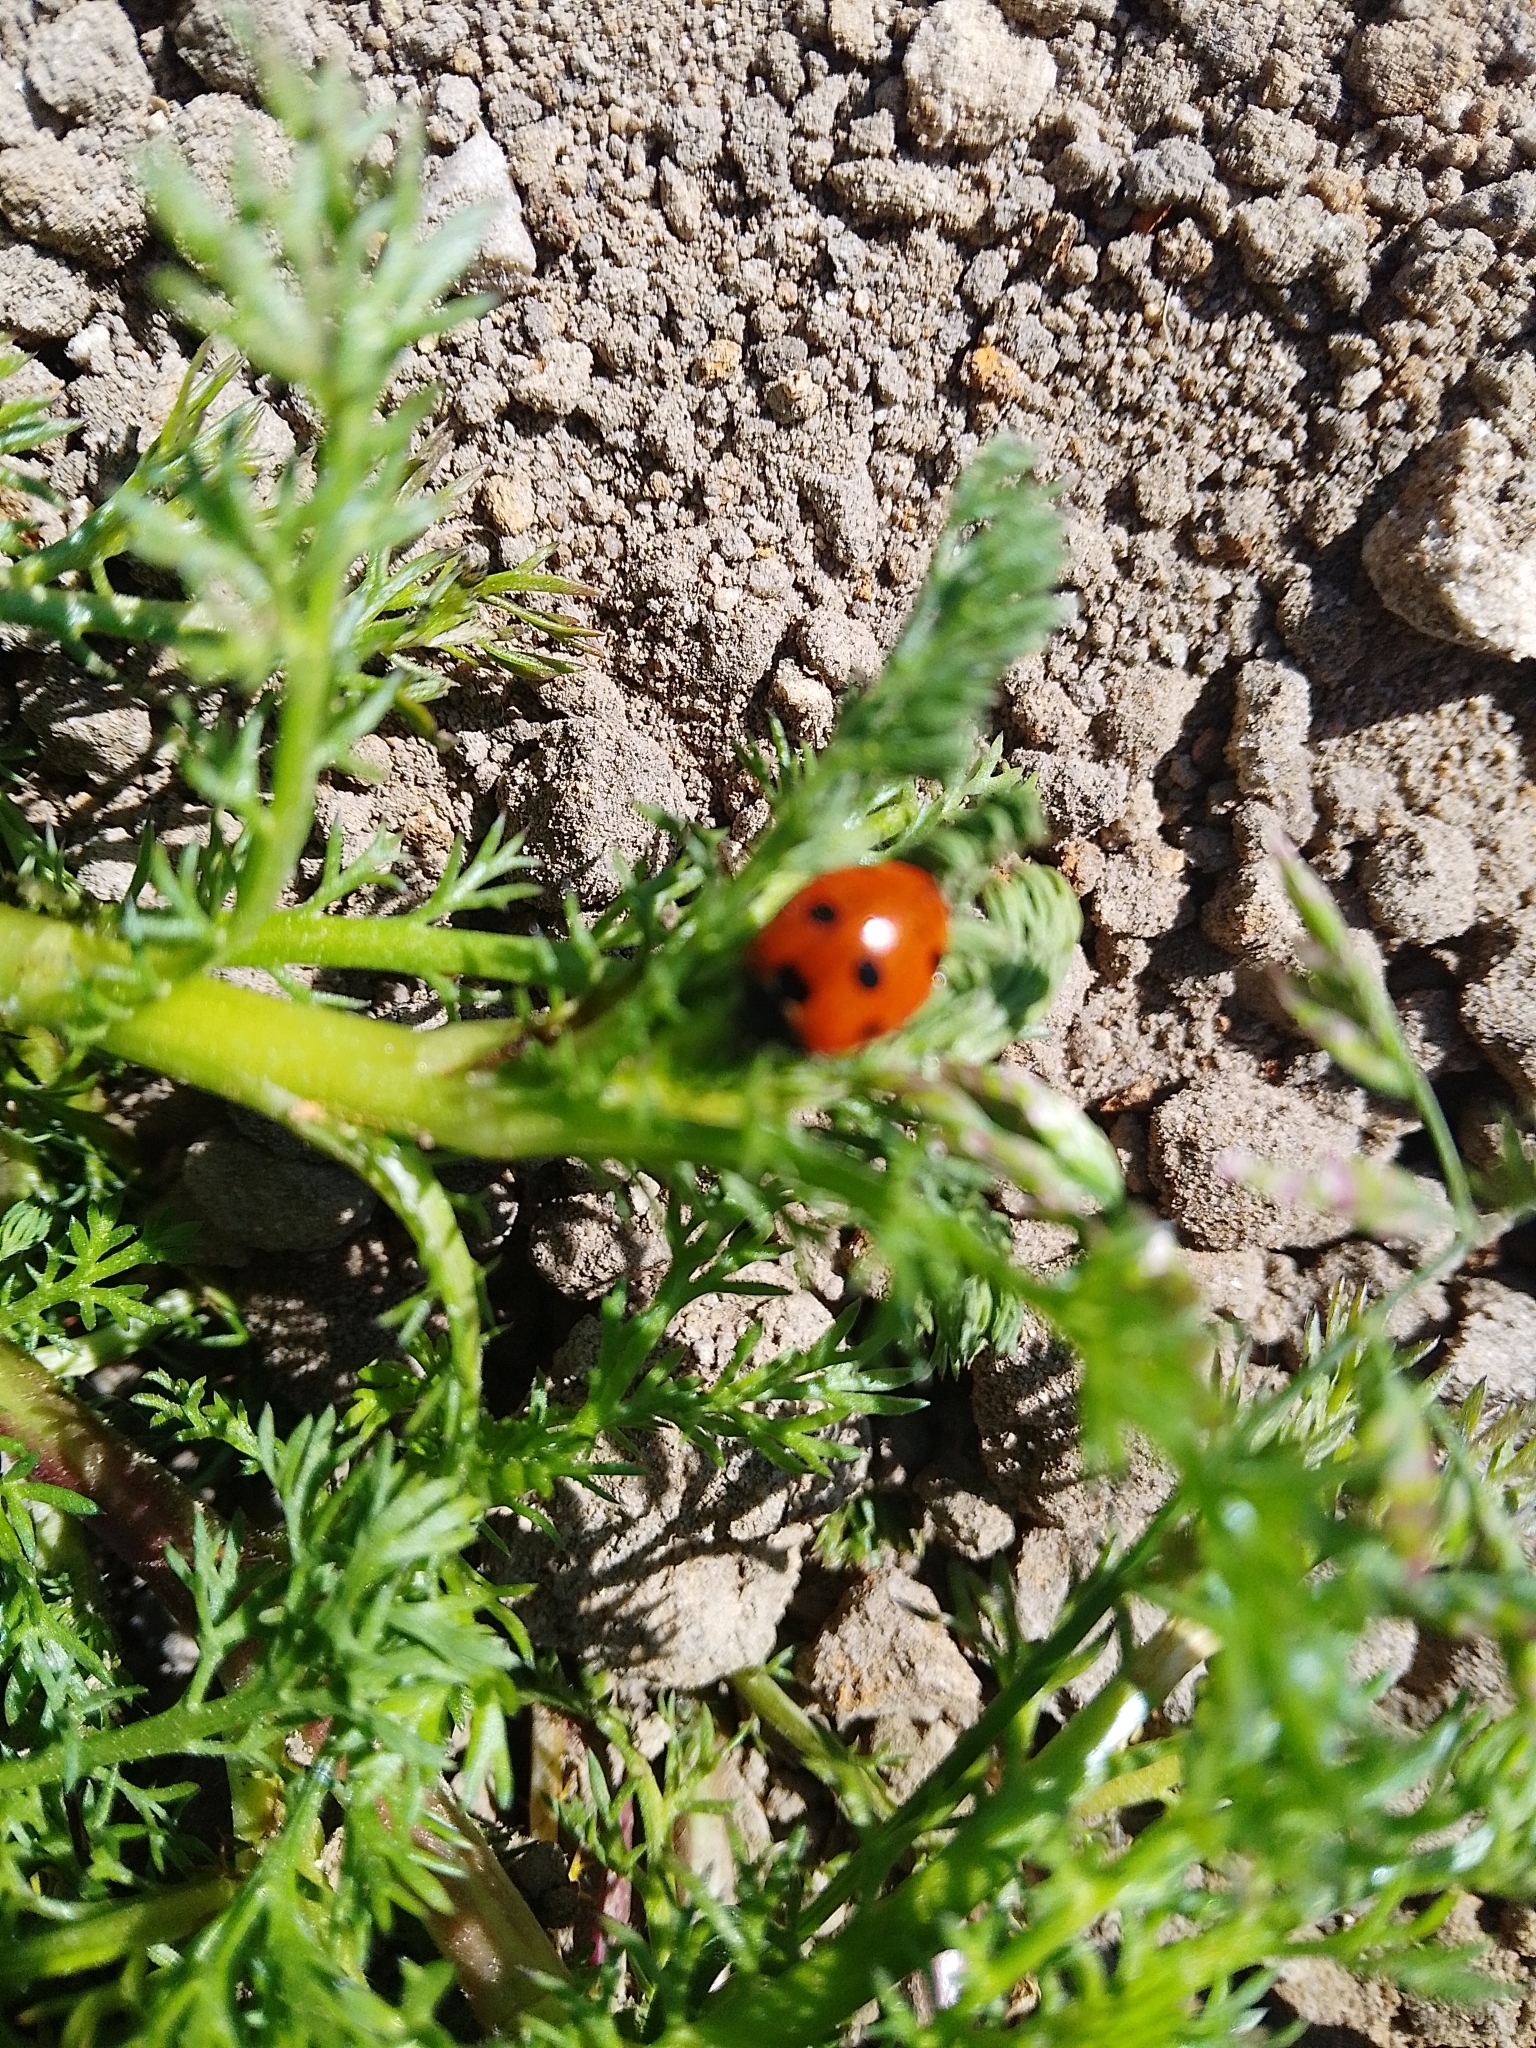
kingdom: Animalia
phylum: Arthropoda
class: Insecta
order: Coleoptera
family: Coccinellidae
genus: Coccinella
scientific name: Coccinella septempunctata
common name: Sevenspotted lady beetle
